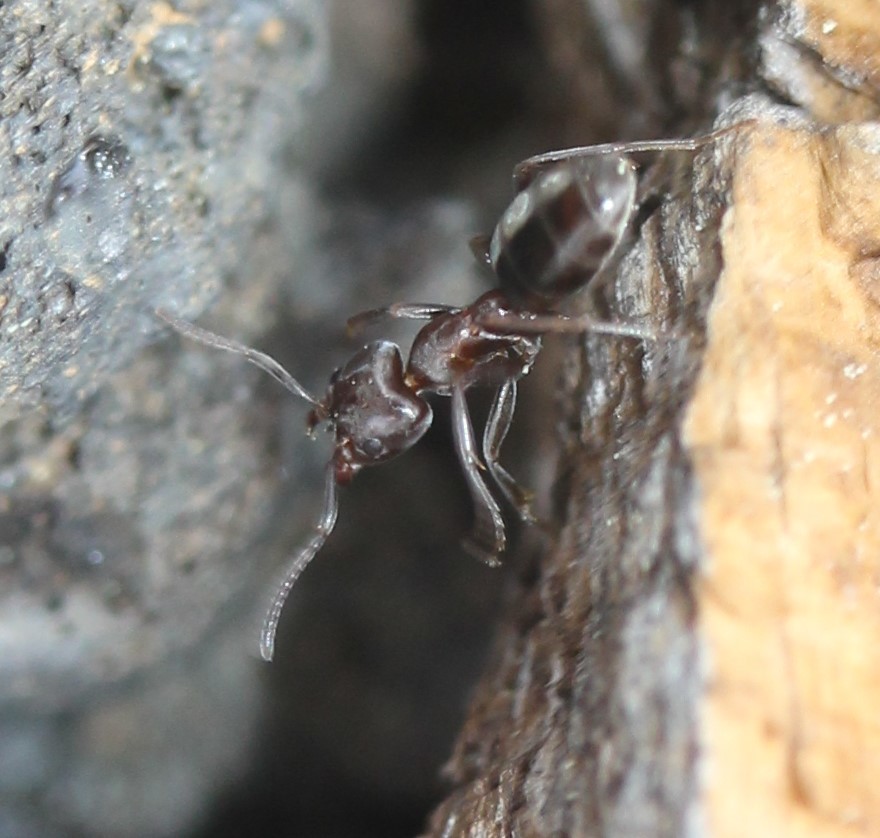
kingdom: Animalia
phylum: Arthropoda
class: Insecta
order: Hymenoptera
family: Formicidae
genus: Liometopum
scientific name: Liometopum luctuosum
